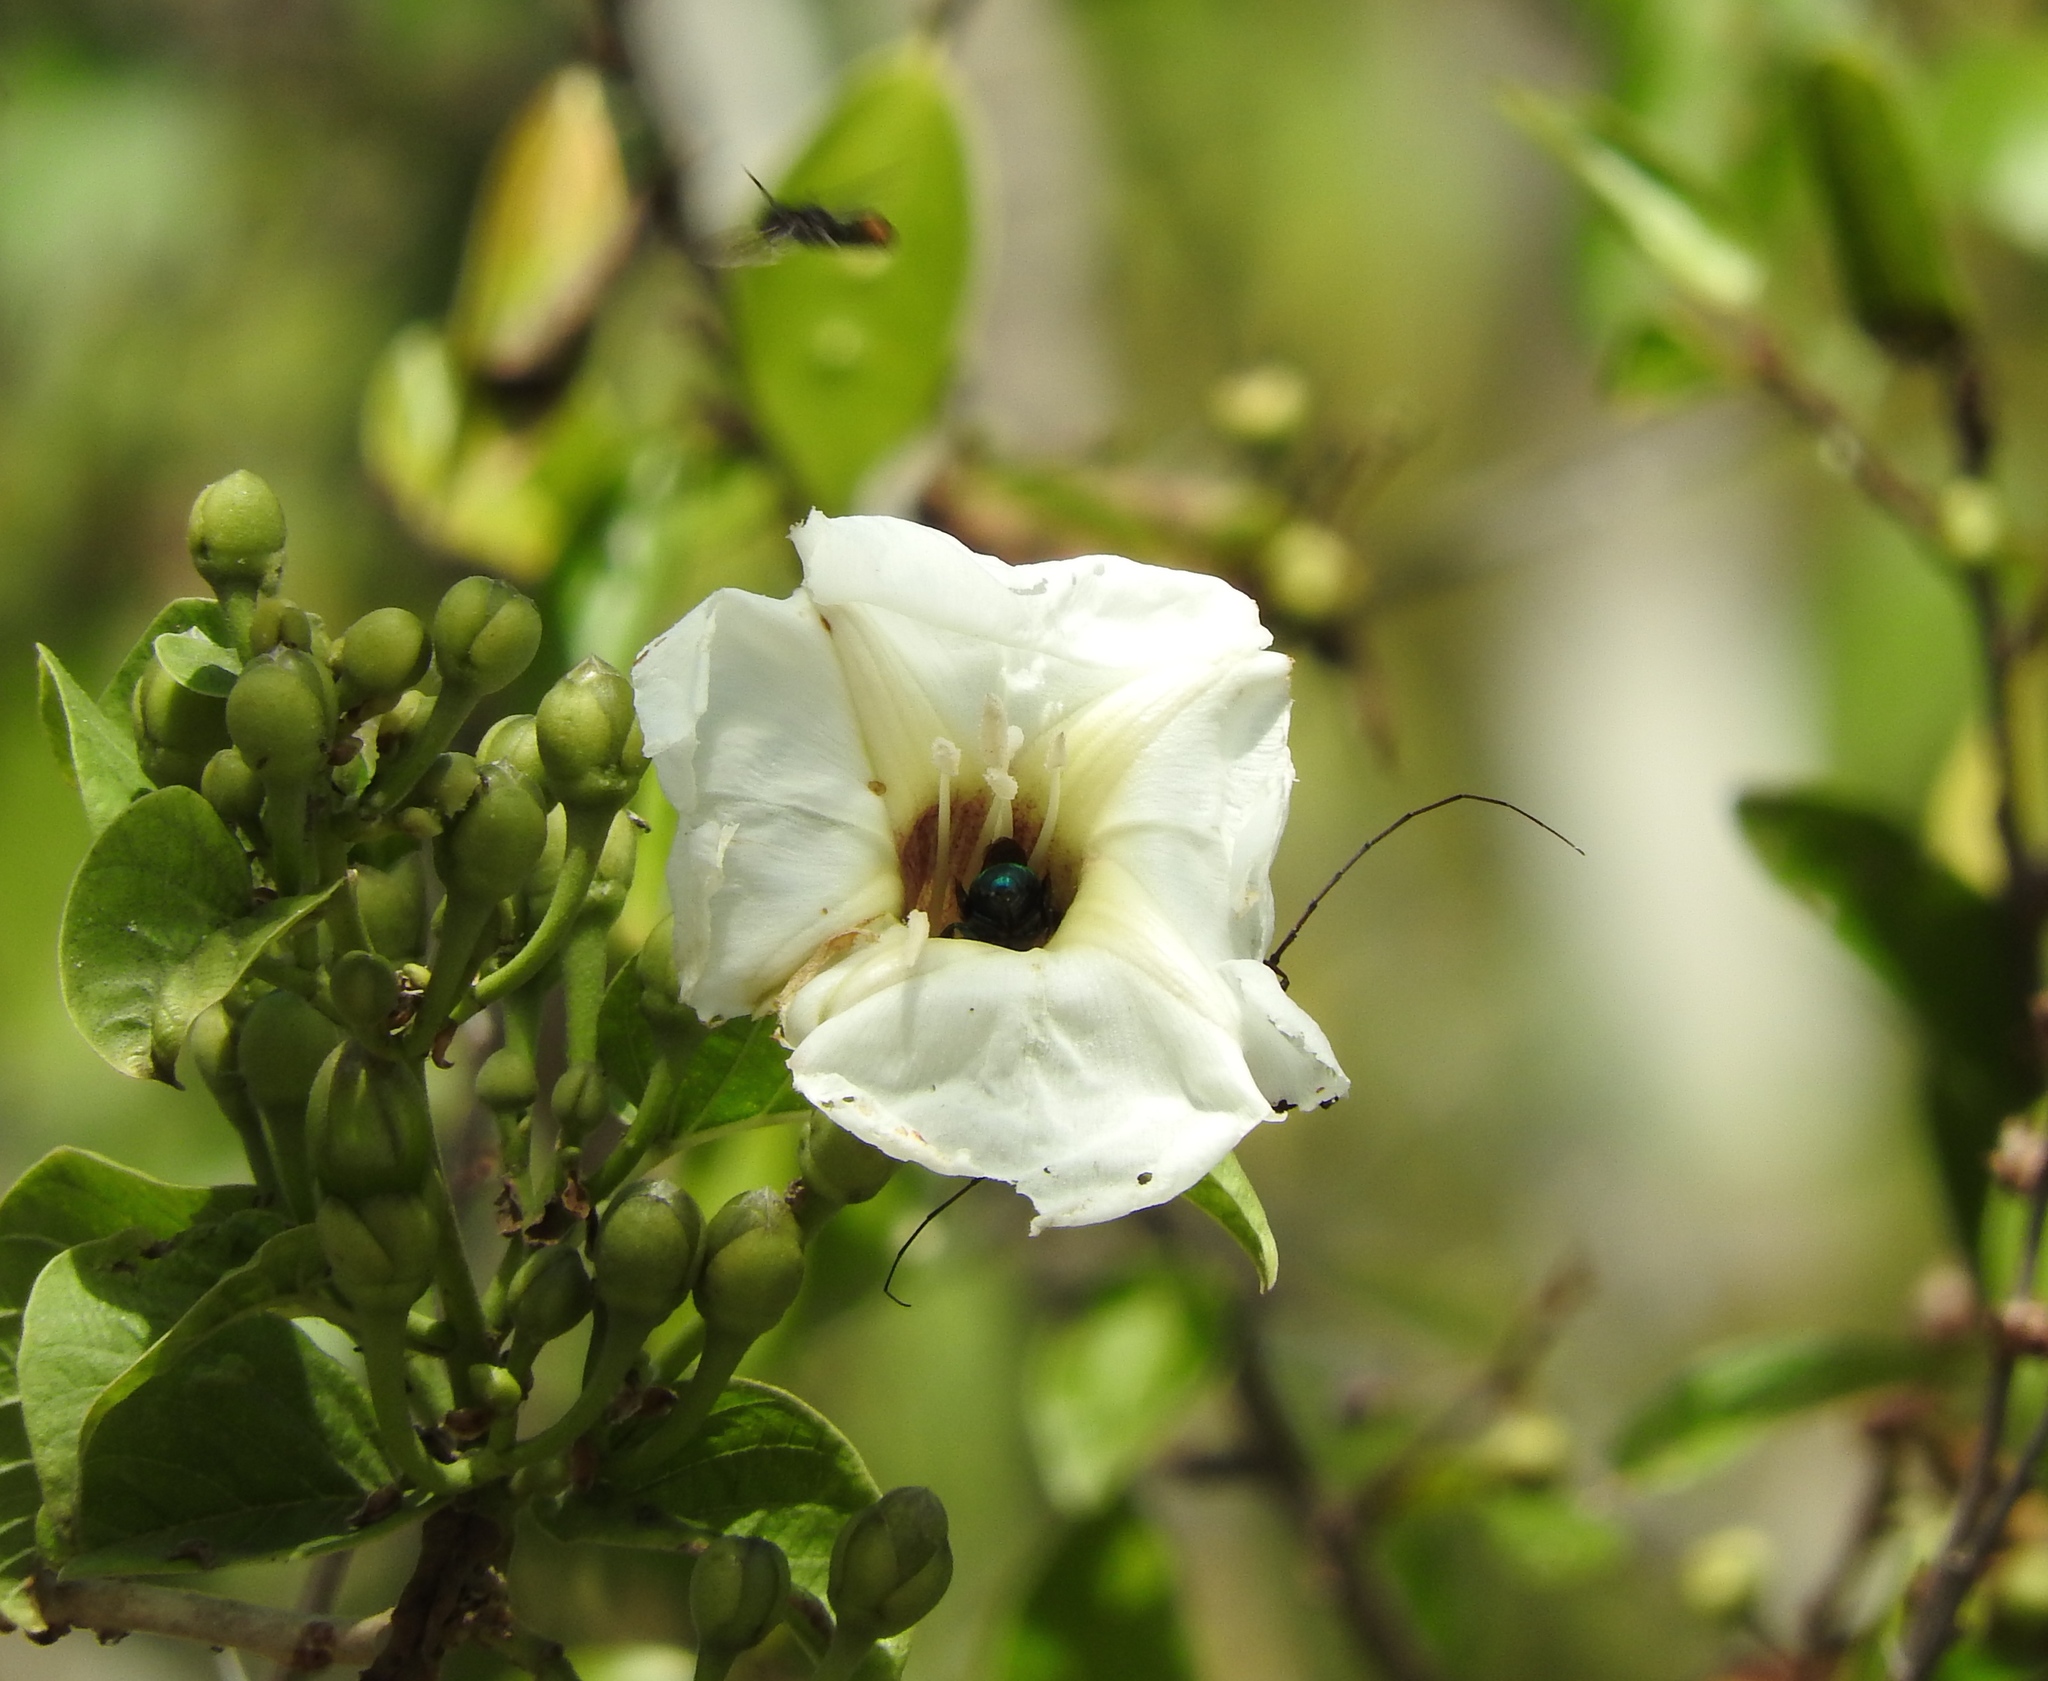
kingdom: Plantae
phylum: Tracheophyta
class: Magnoliopsida
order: Solanales
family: Convolvulaceae
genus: Ipomoea
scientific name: Ipomoea
